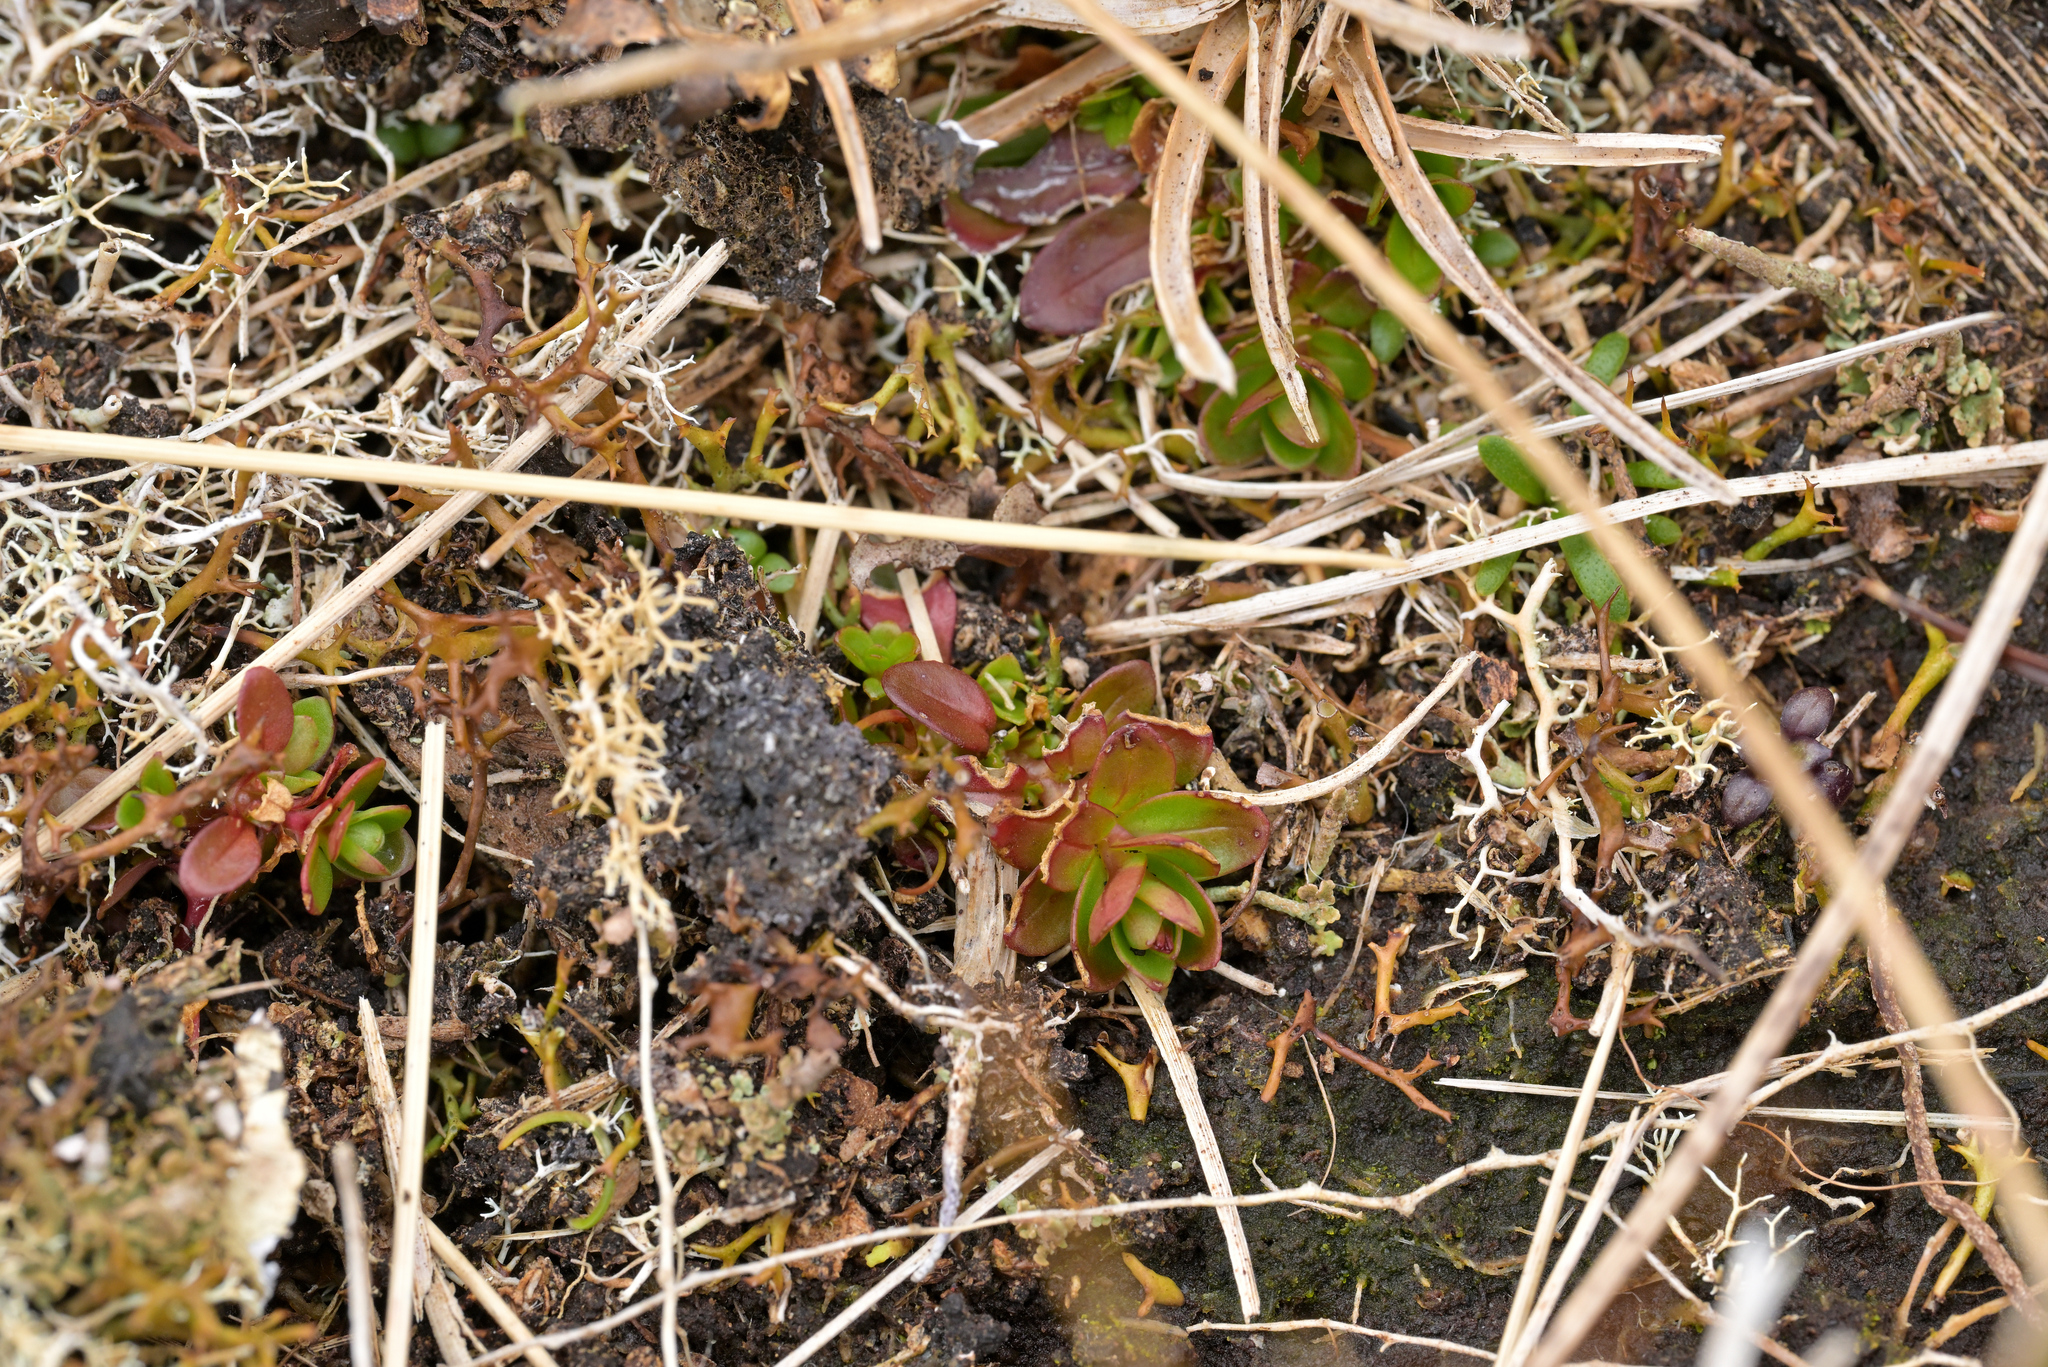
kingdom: Plantae
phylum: Tracheophyta
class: Magnoliopsida
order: Myrtales
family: Onagraceae
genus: Epilobium
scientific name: Epilobium confertifolium
